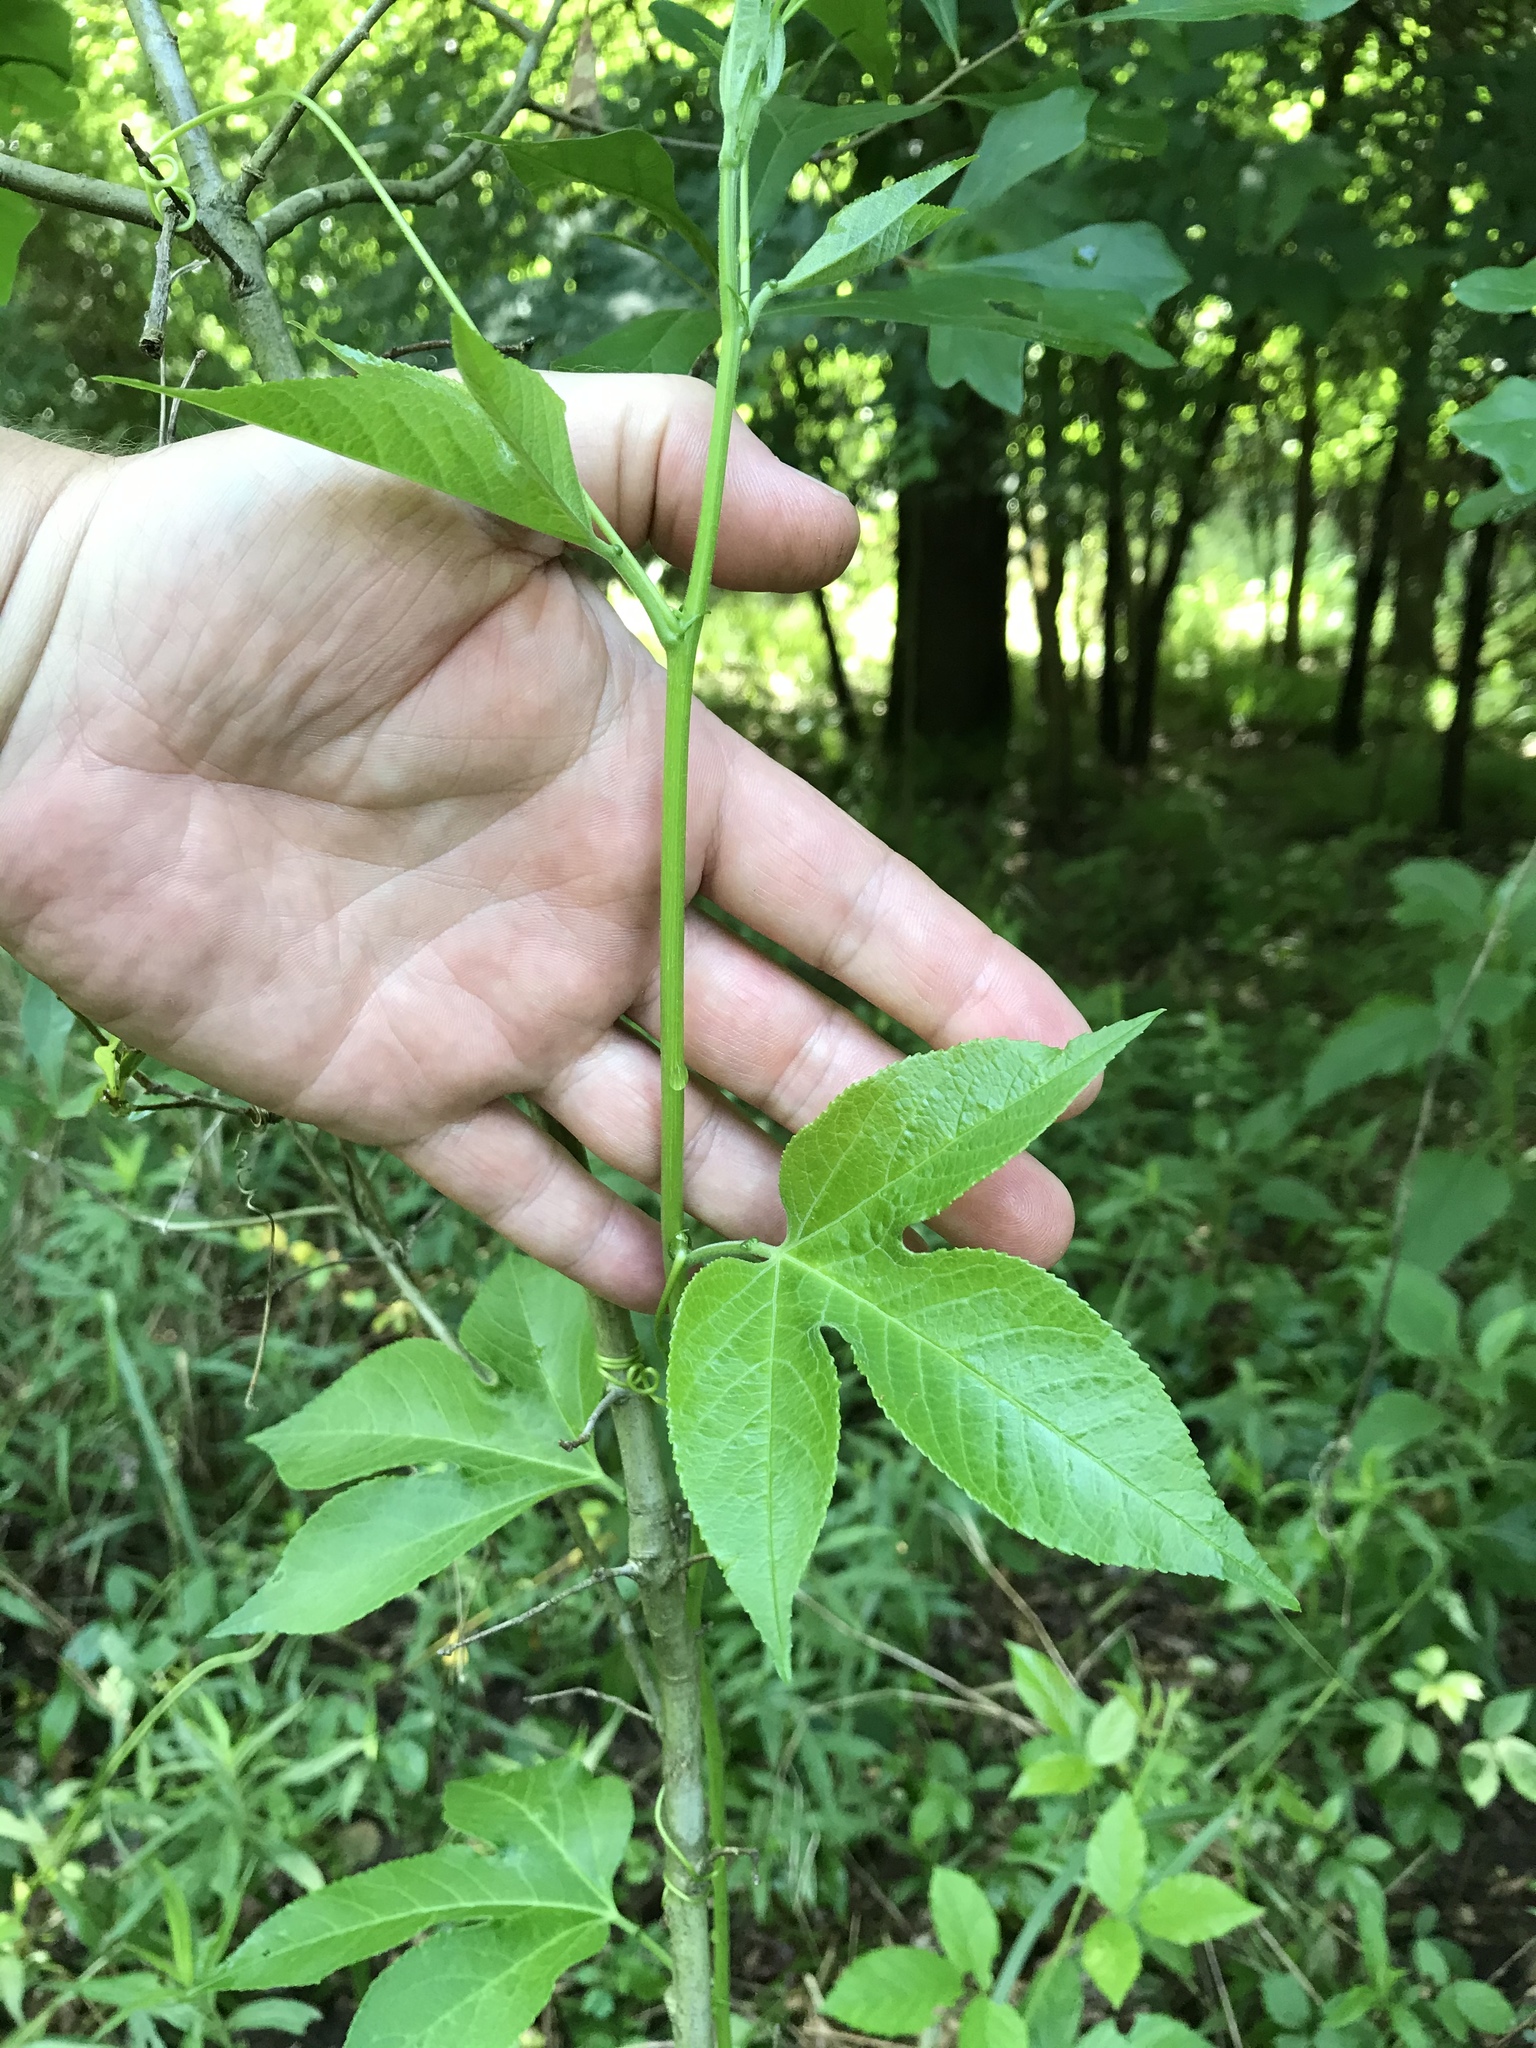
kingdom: Plantae
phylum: Tracheophyta
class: Magnoliopsida
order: Malpighiales
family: Passifloraceae
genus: Passiflora
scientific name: Passiflora incarnata
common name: Apricot-vine
